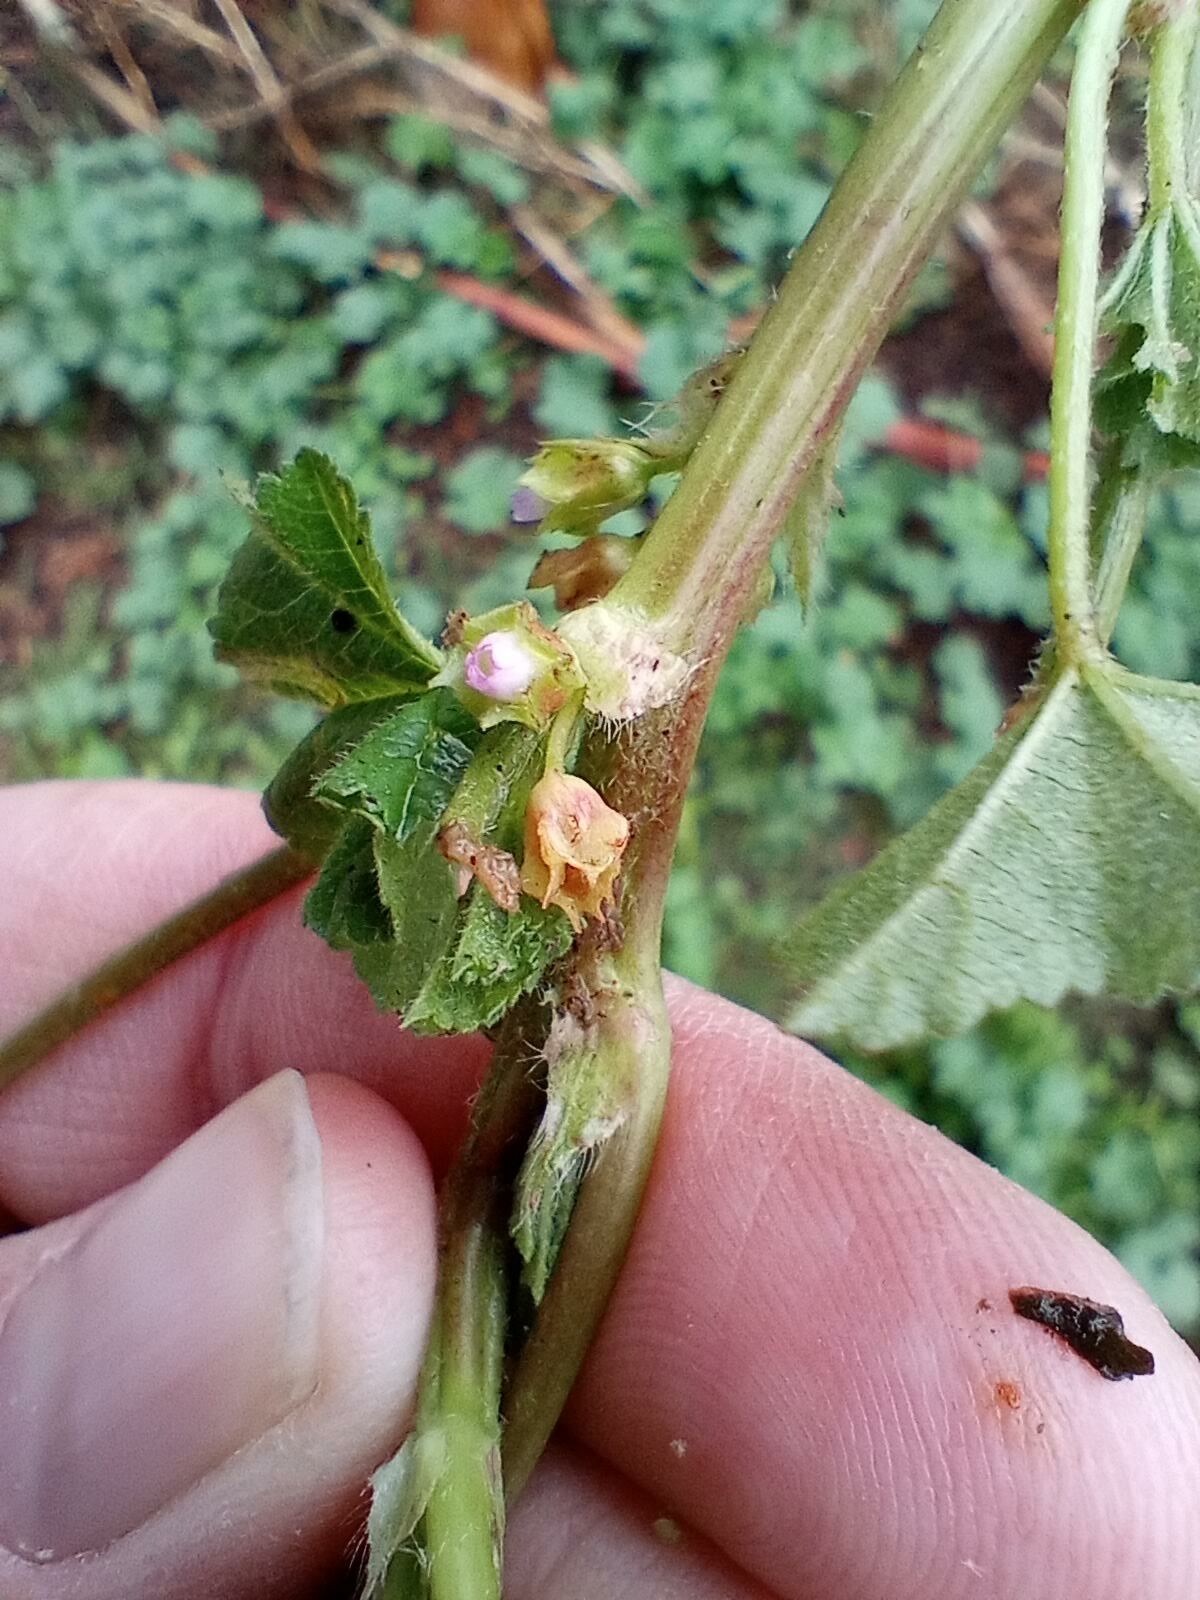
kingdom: Plantae
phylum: Tracheophyta
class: Magnoliopsida
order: Malvales
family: Malvaceae
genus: Malva
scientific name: Malva parviflora
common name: Least mallow
